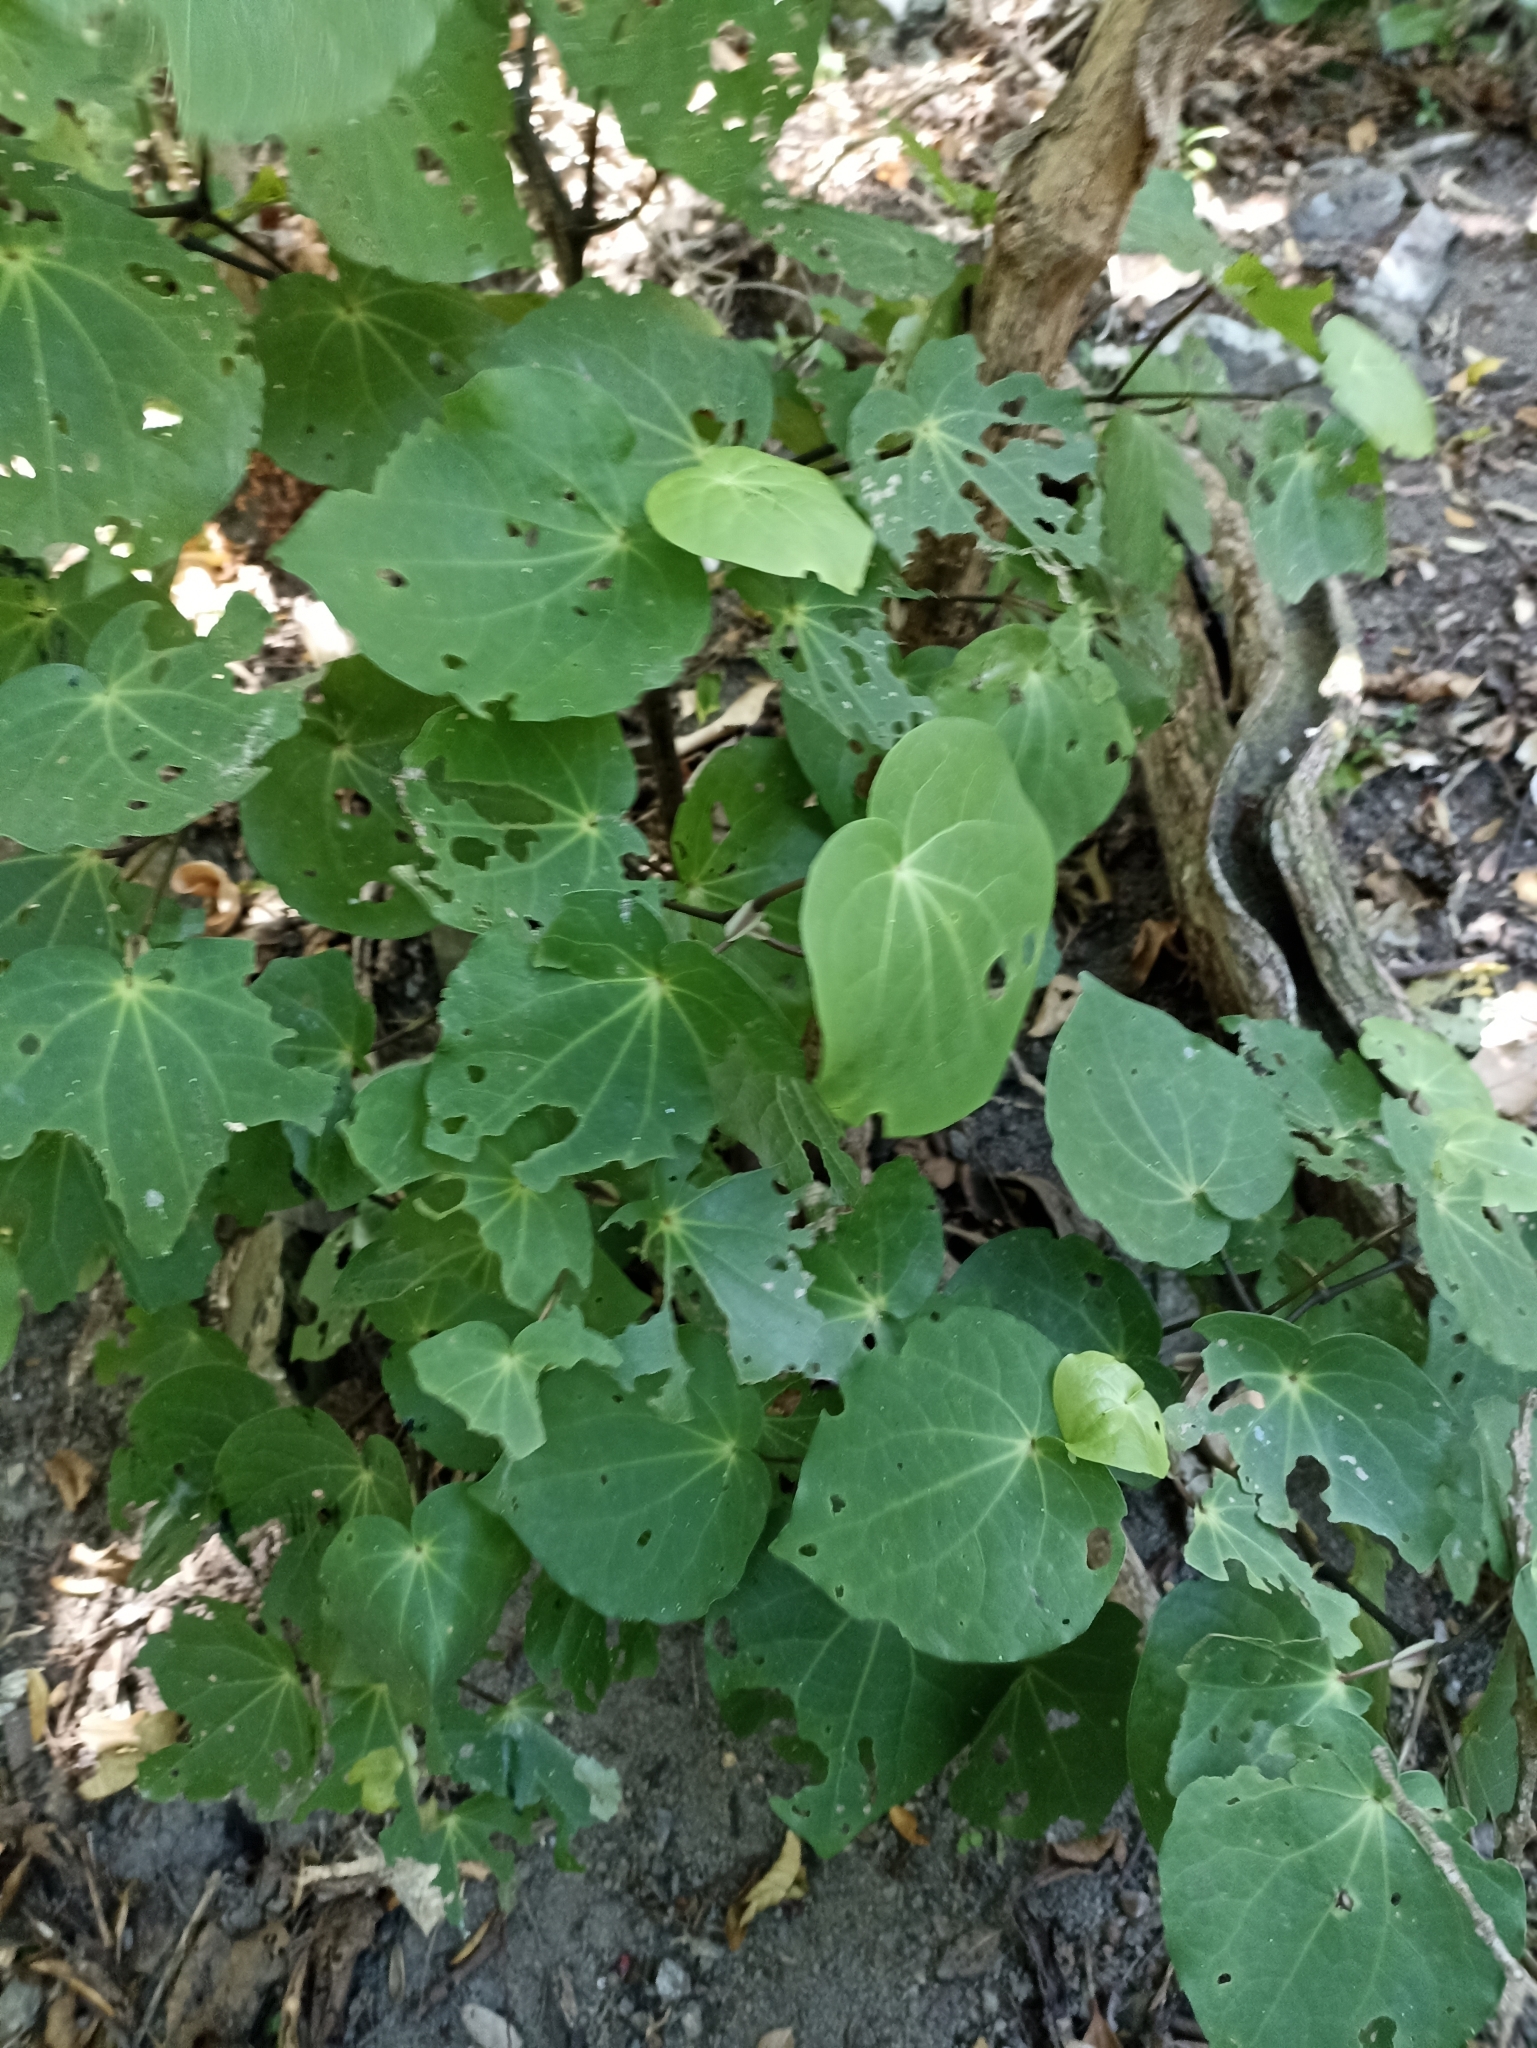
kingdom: Plantae
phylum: Tracheophyta
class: Magnoliopsida
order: Piperales
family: Piperaceae
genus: Macropiper
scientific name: Macropiper excelsum
